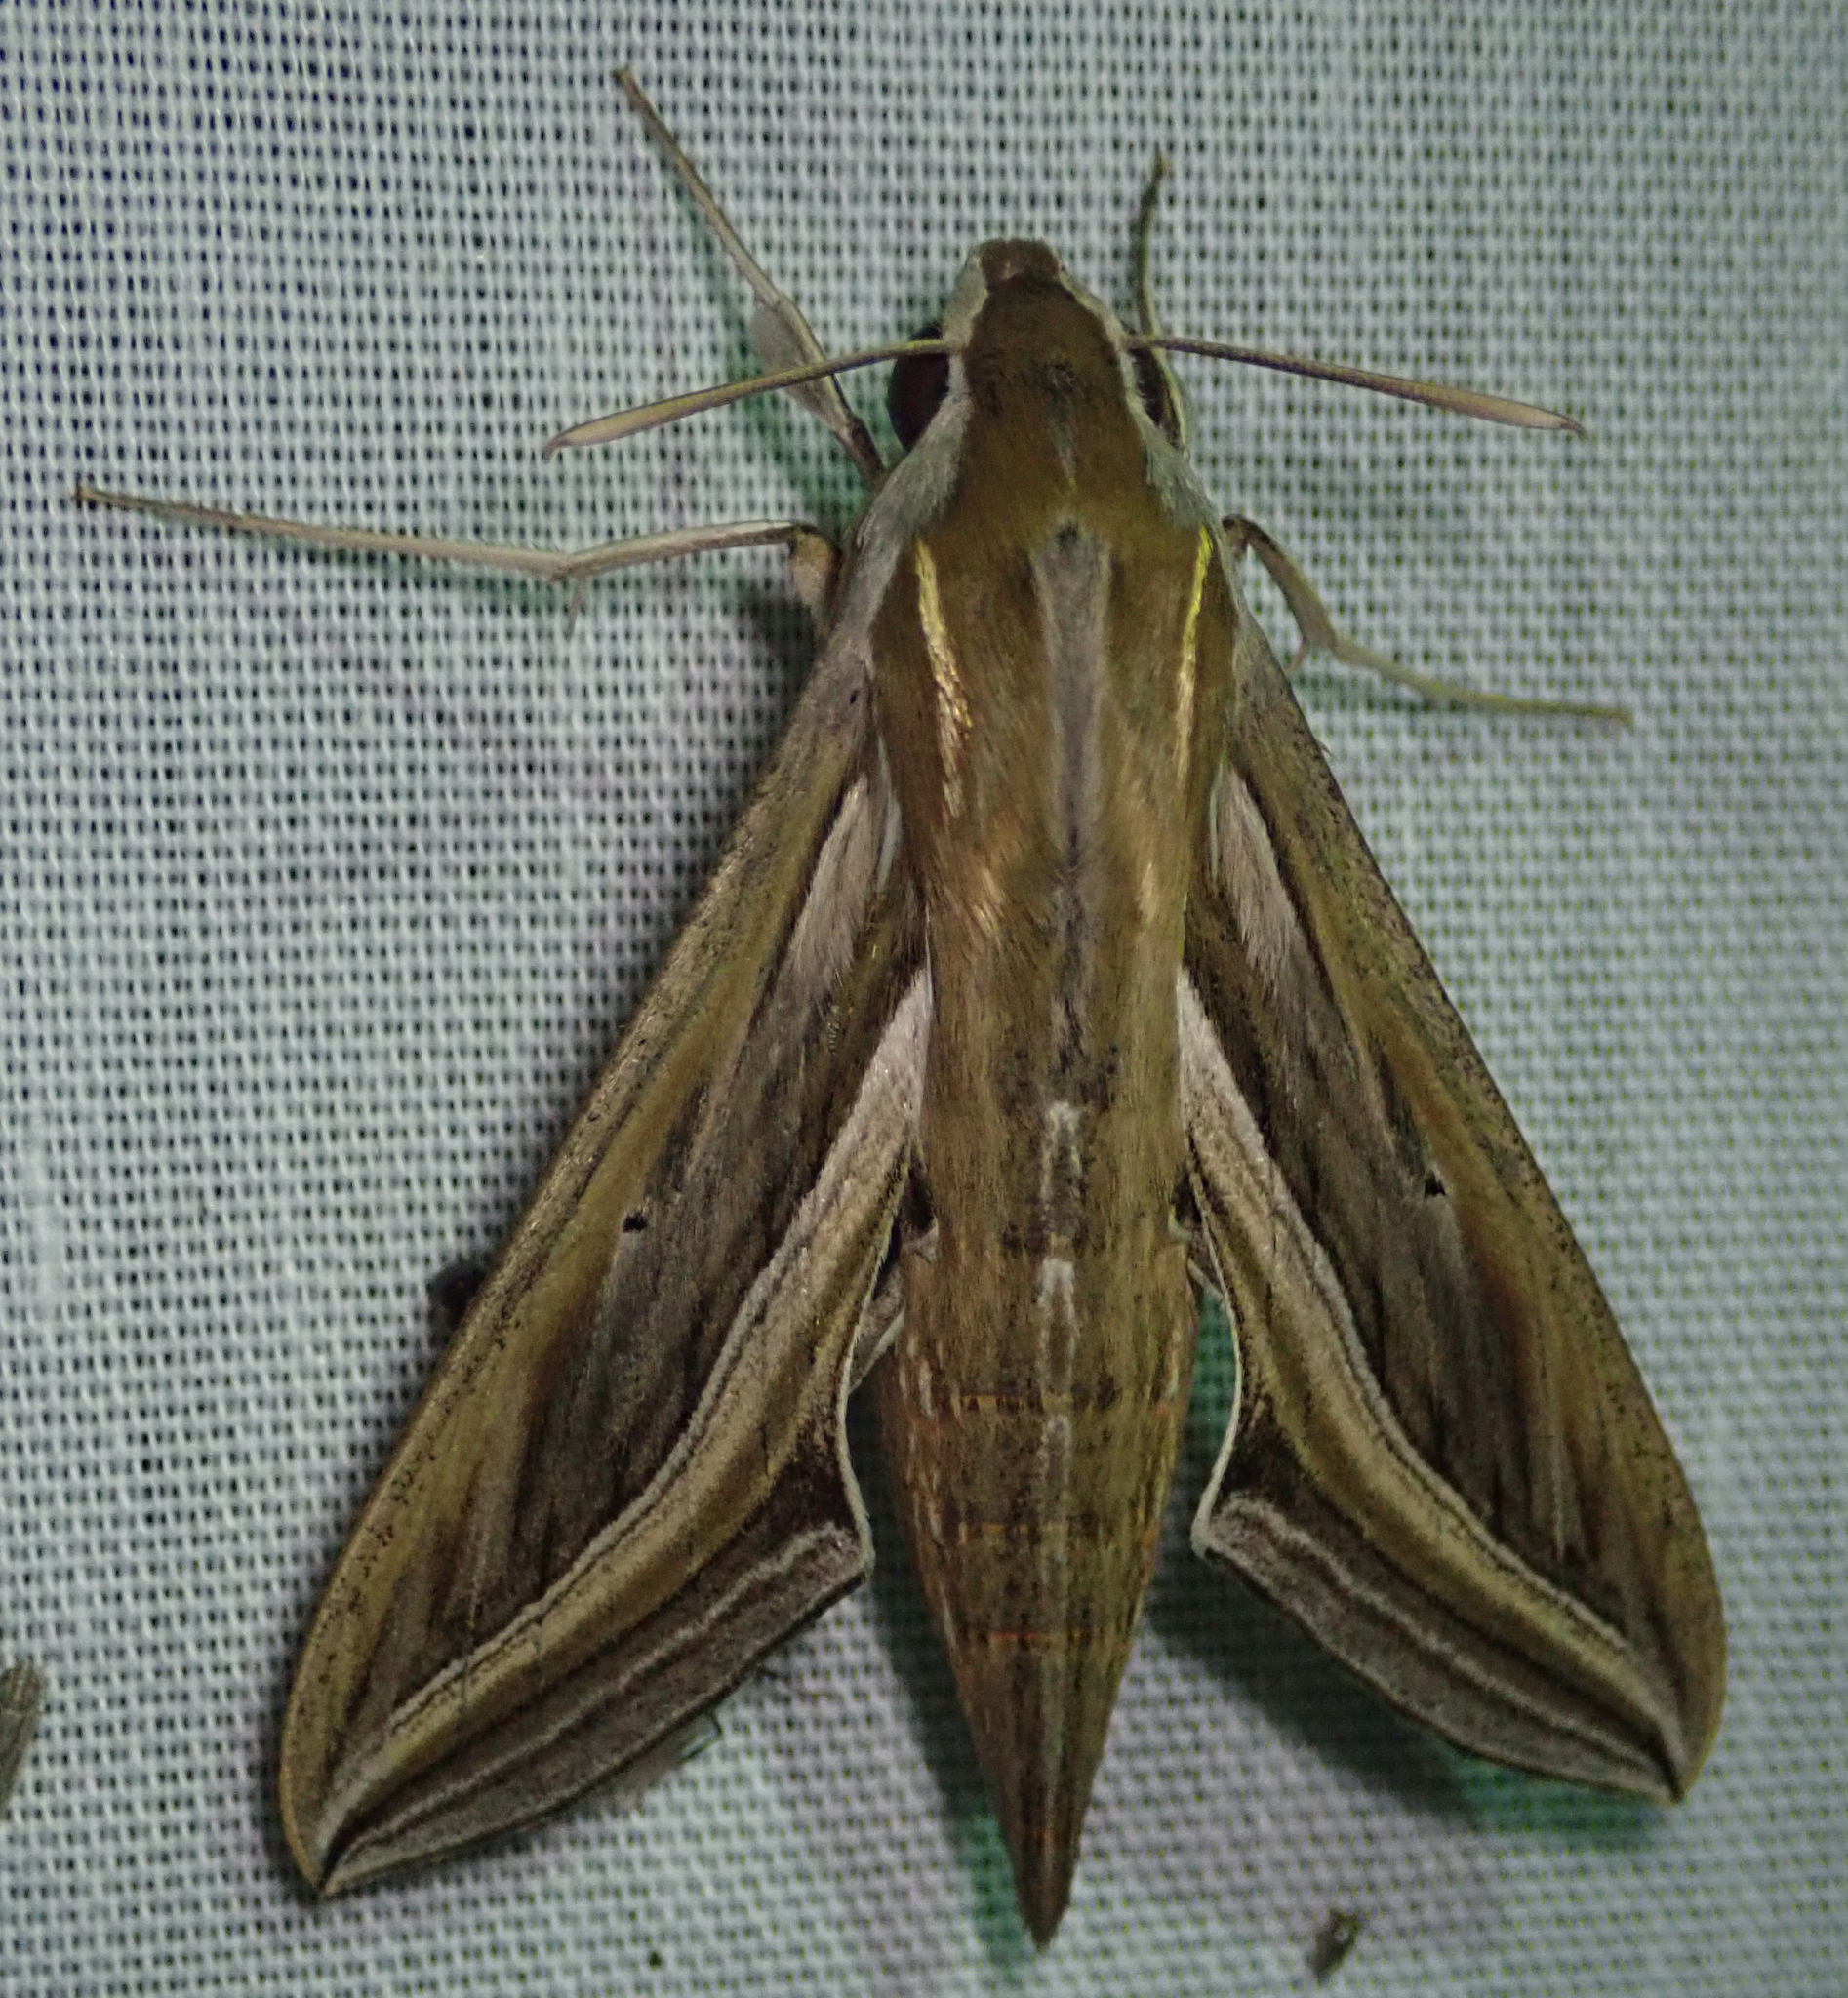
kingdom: Animalia
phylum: Arthropoda
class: Insecta
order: Lepidoptera
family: Sphingidae
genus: Hippotion
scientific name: Hippotion celerio
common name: Silver-striped hawk-moth
